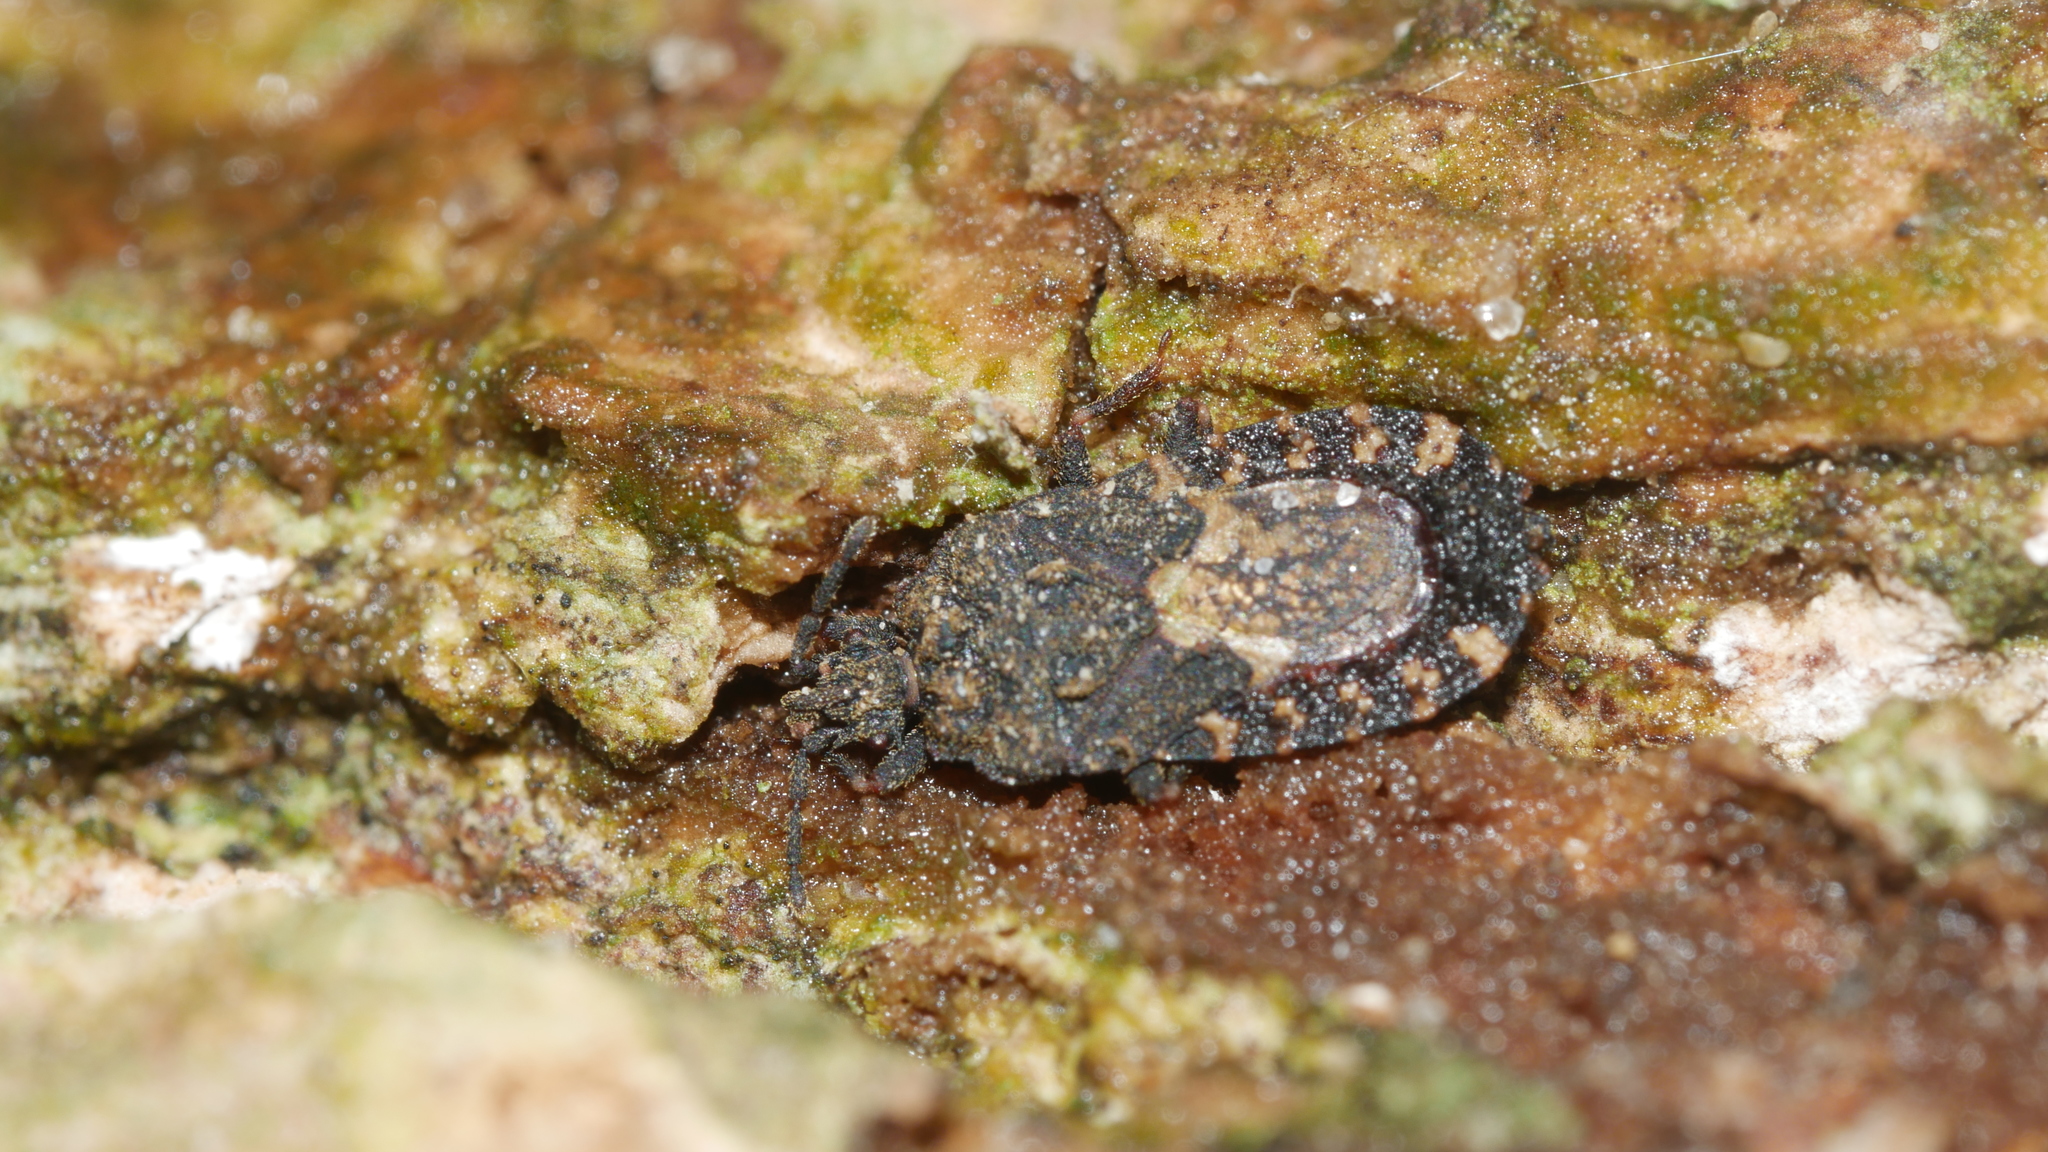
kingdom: Animalia
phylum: Arthropoda
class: Insecta
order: Hemiptera
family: Aradidae
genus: Mezira
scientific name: Mezira
